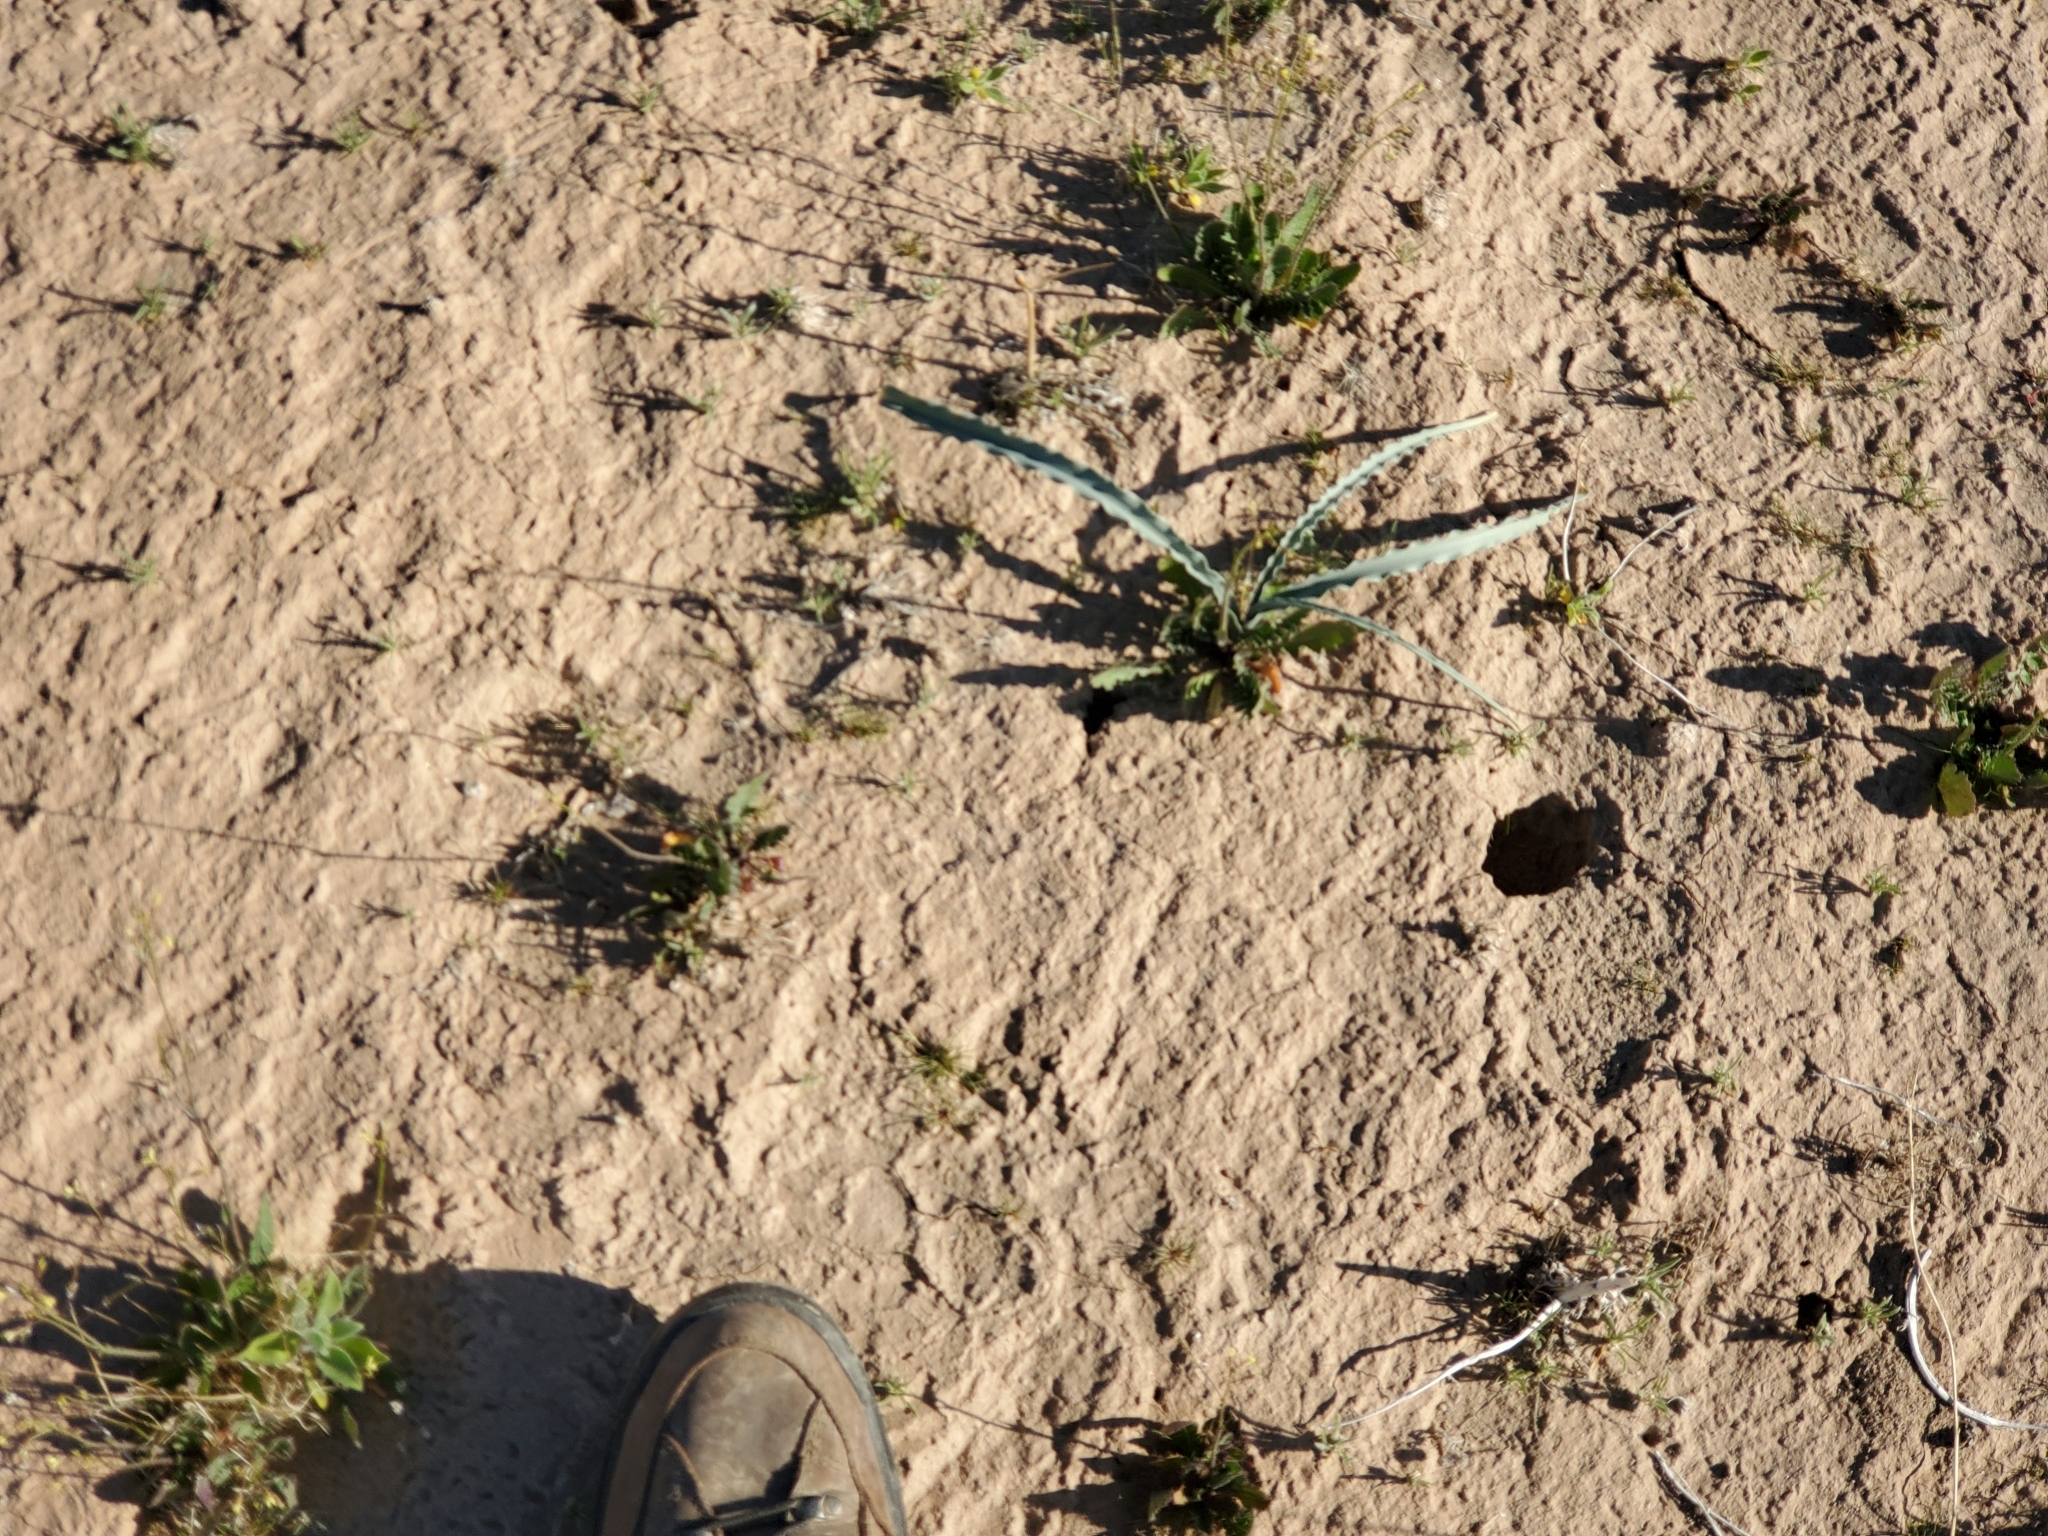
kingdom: Plantae
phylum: Tracheophyta
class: Liliopsida
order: Asparagales
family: Asparagaceae
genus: Hesperocallis
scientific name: Hesperocallis undulata
